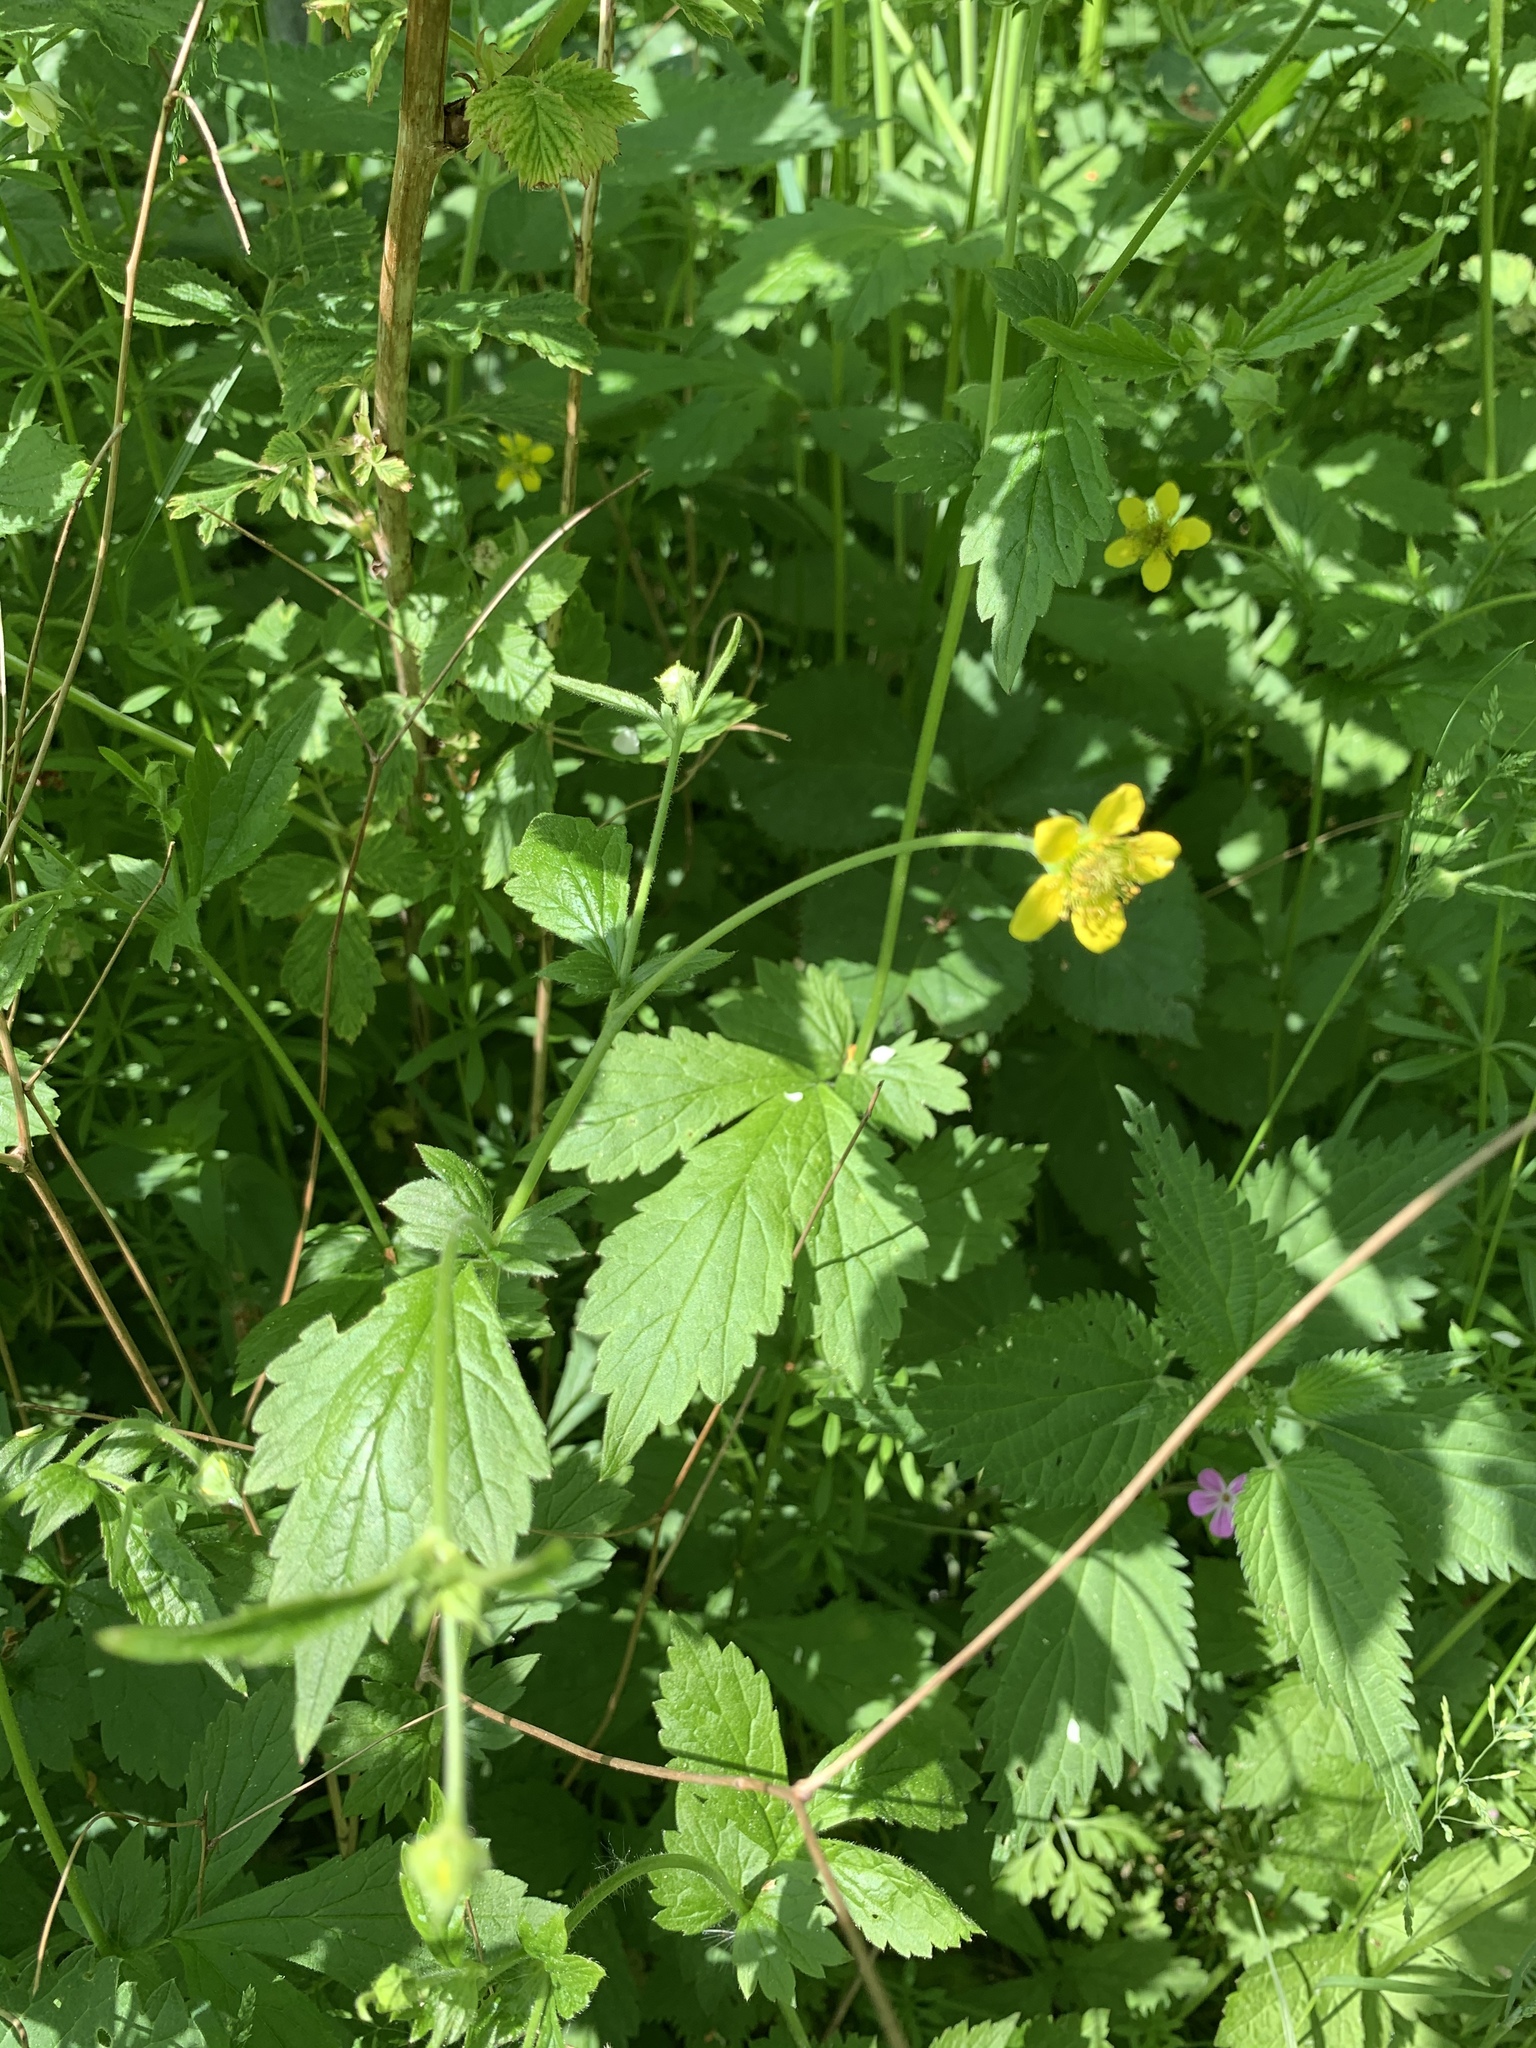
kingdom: Plantae
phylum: Tracheophyta
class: Magnoliopsida
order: Rosales
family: Rosaceae
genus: Geum
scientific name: Geum urbanum
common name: Wood avens
